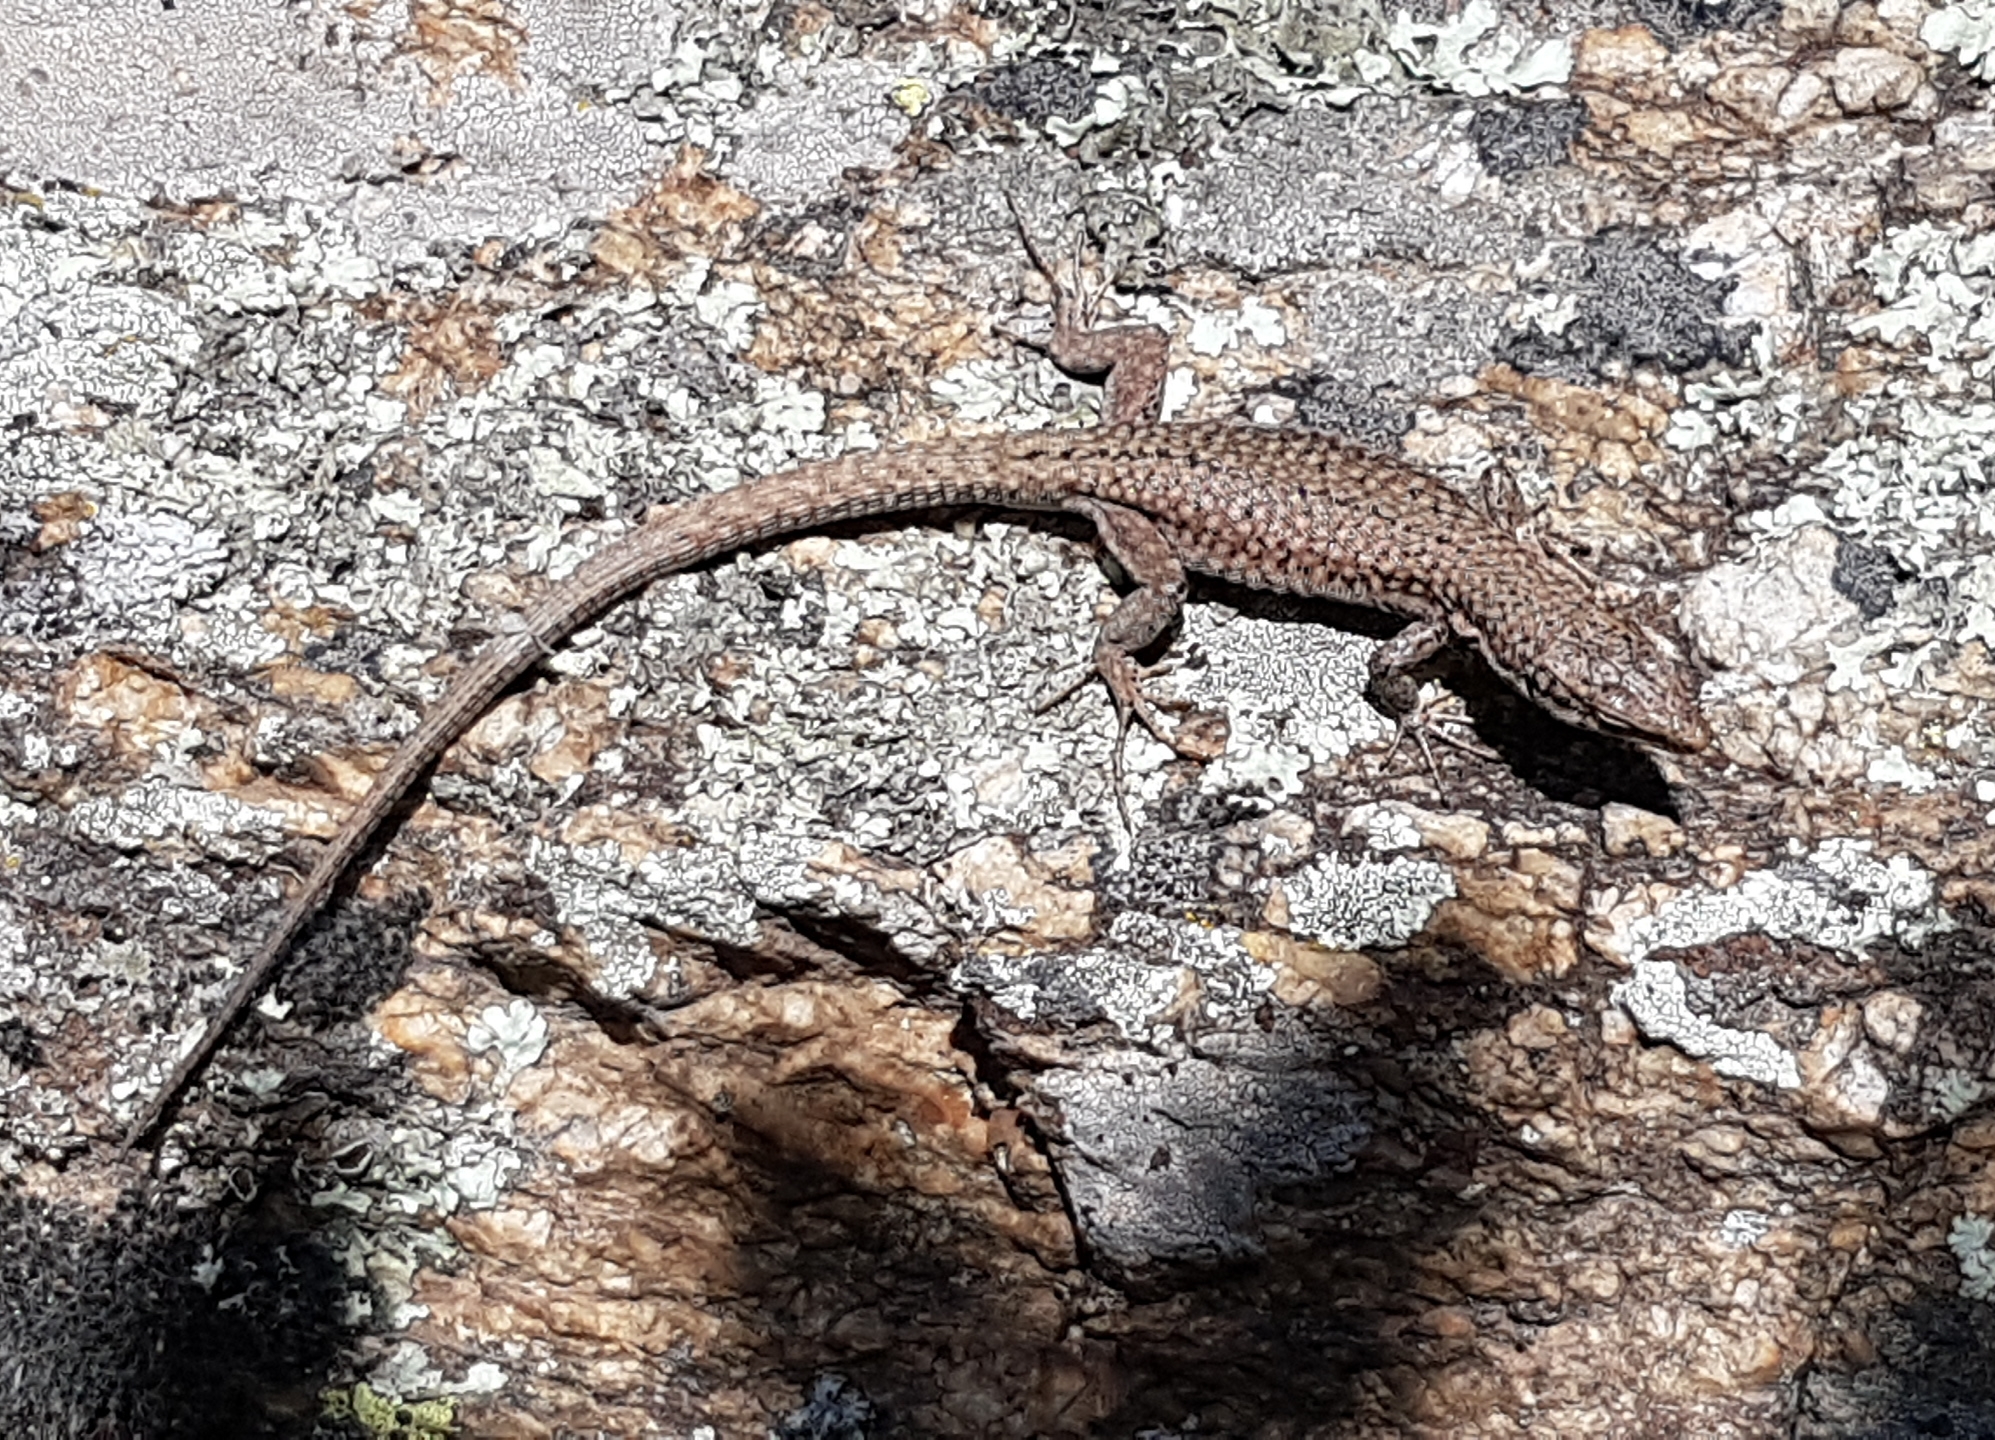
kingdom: Animalia
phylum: Chordata
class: Squamata
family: Lacertidae
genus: Podarcis
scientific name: Podarcis liolepis
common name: Catalonian wall lizard
